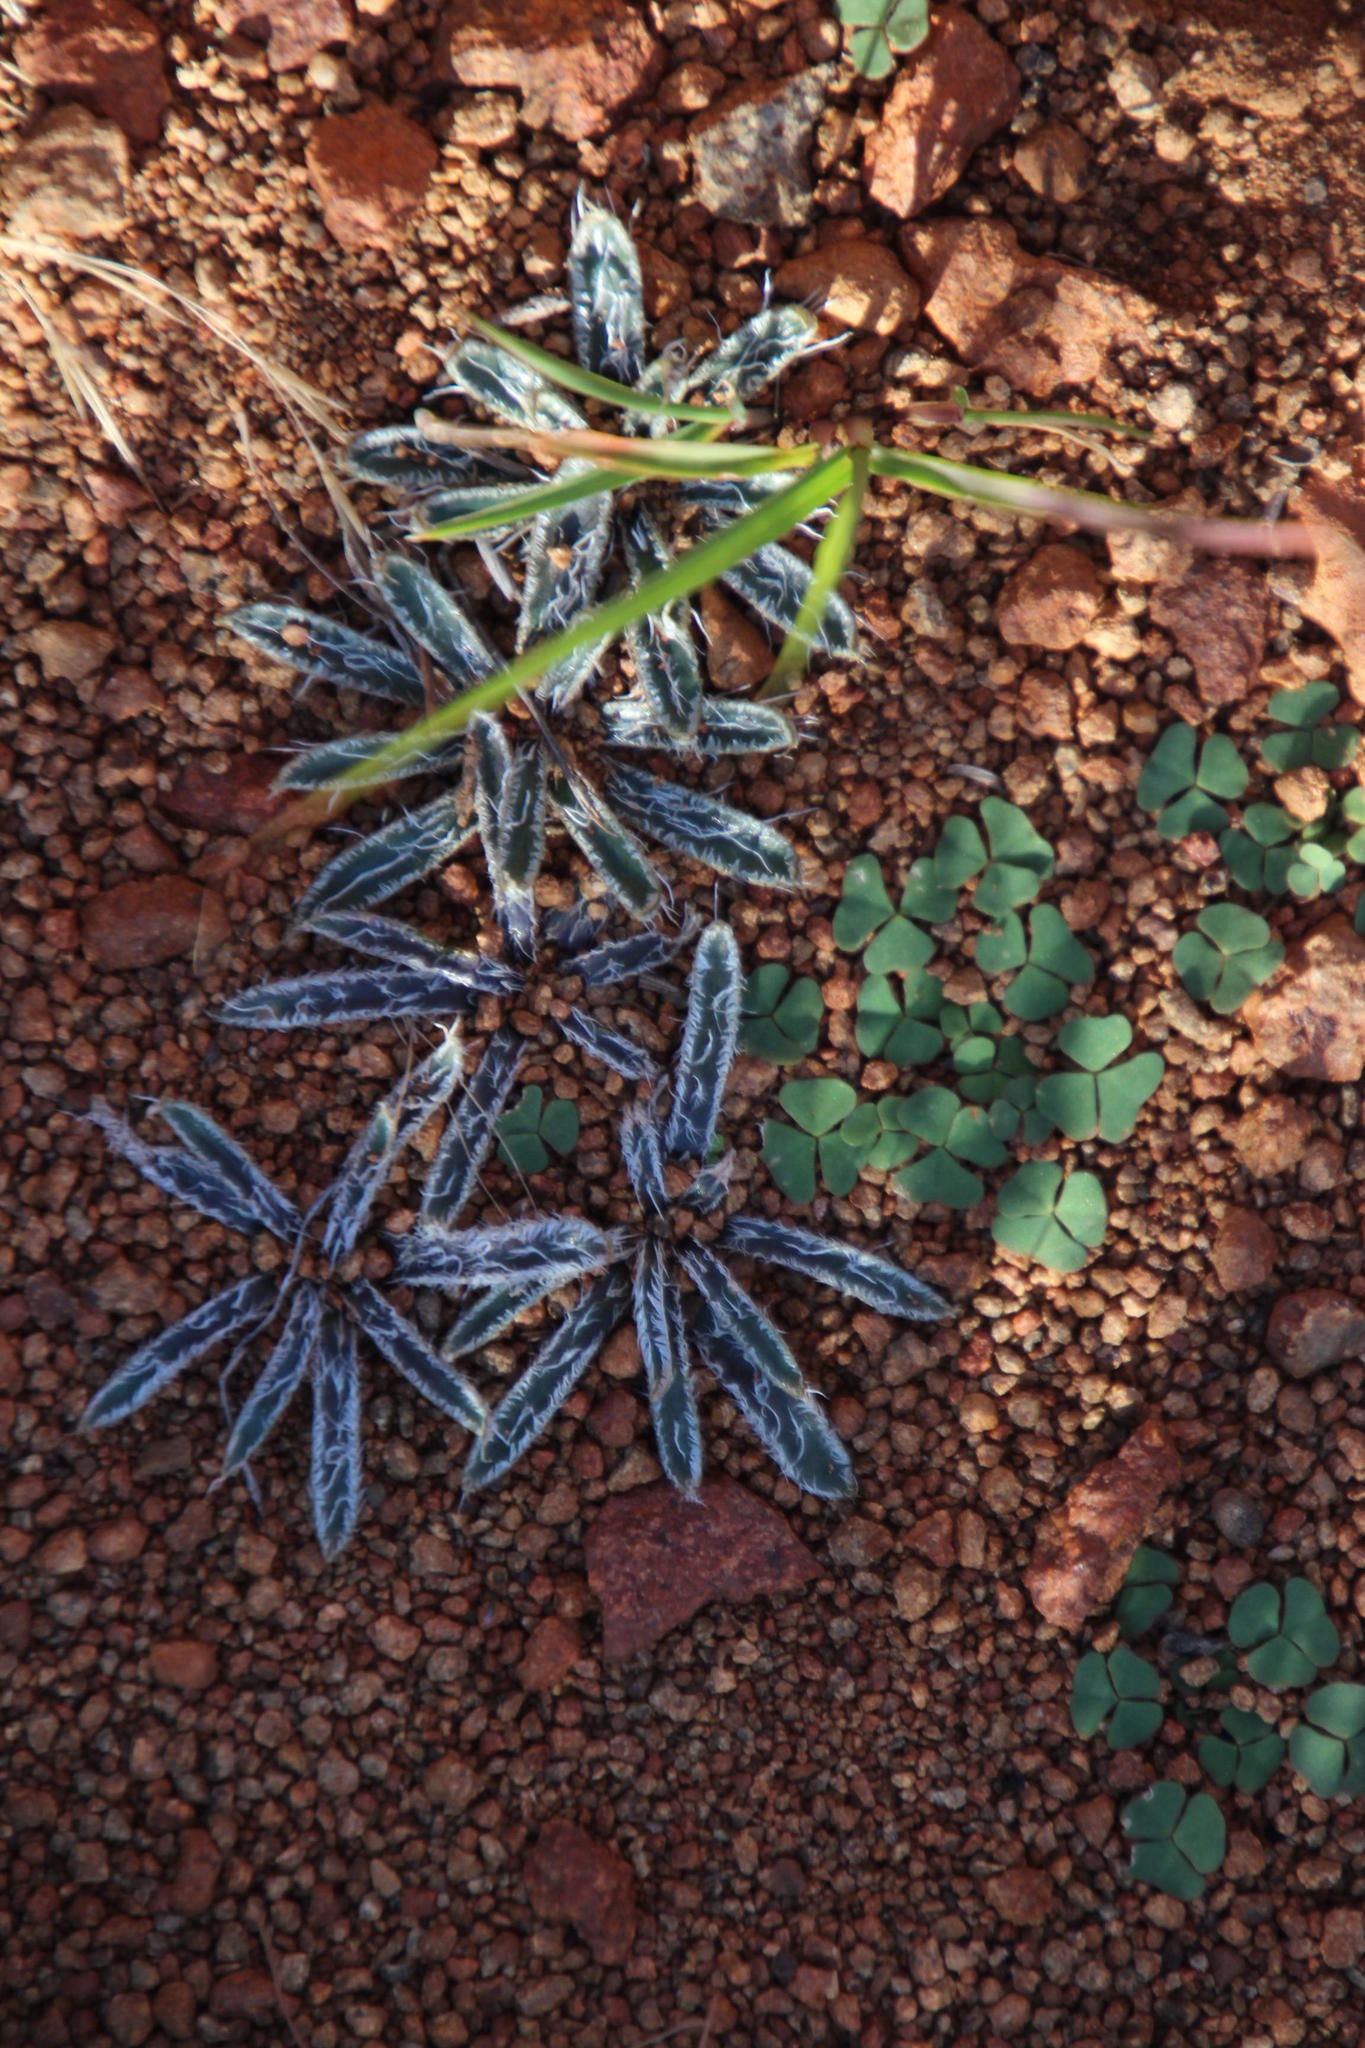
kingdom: Plantae
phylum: Tracheophyta
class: Liliopsida
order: Asparagales
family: Amaryllidaceae
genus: Gethyllis
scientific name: Gethyllis longistyla
